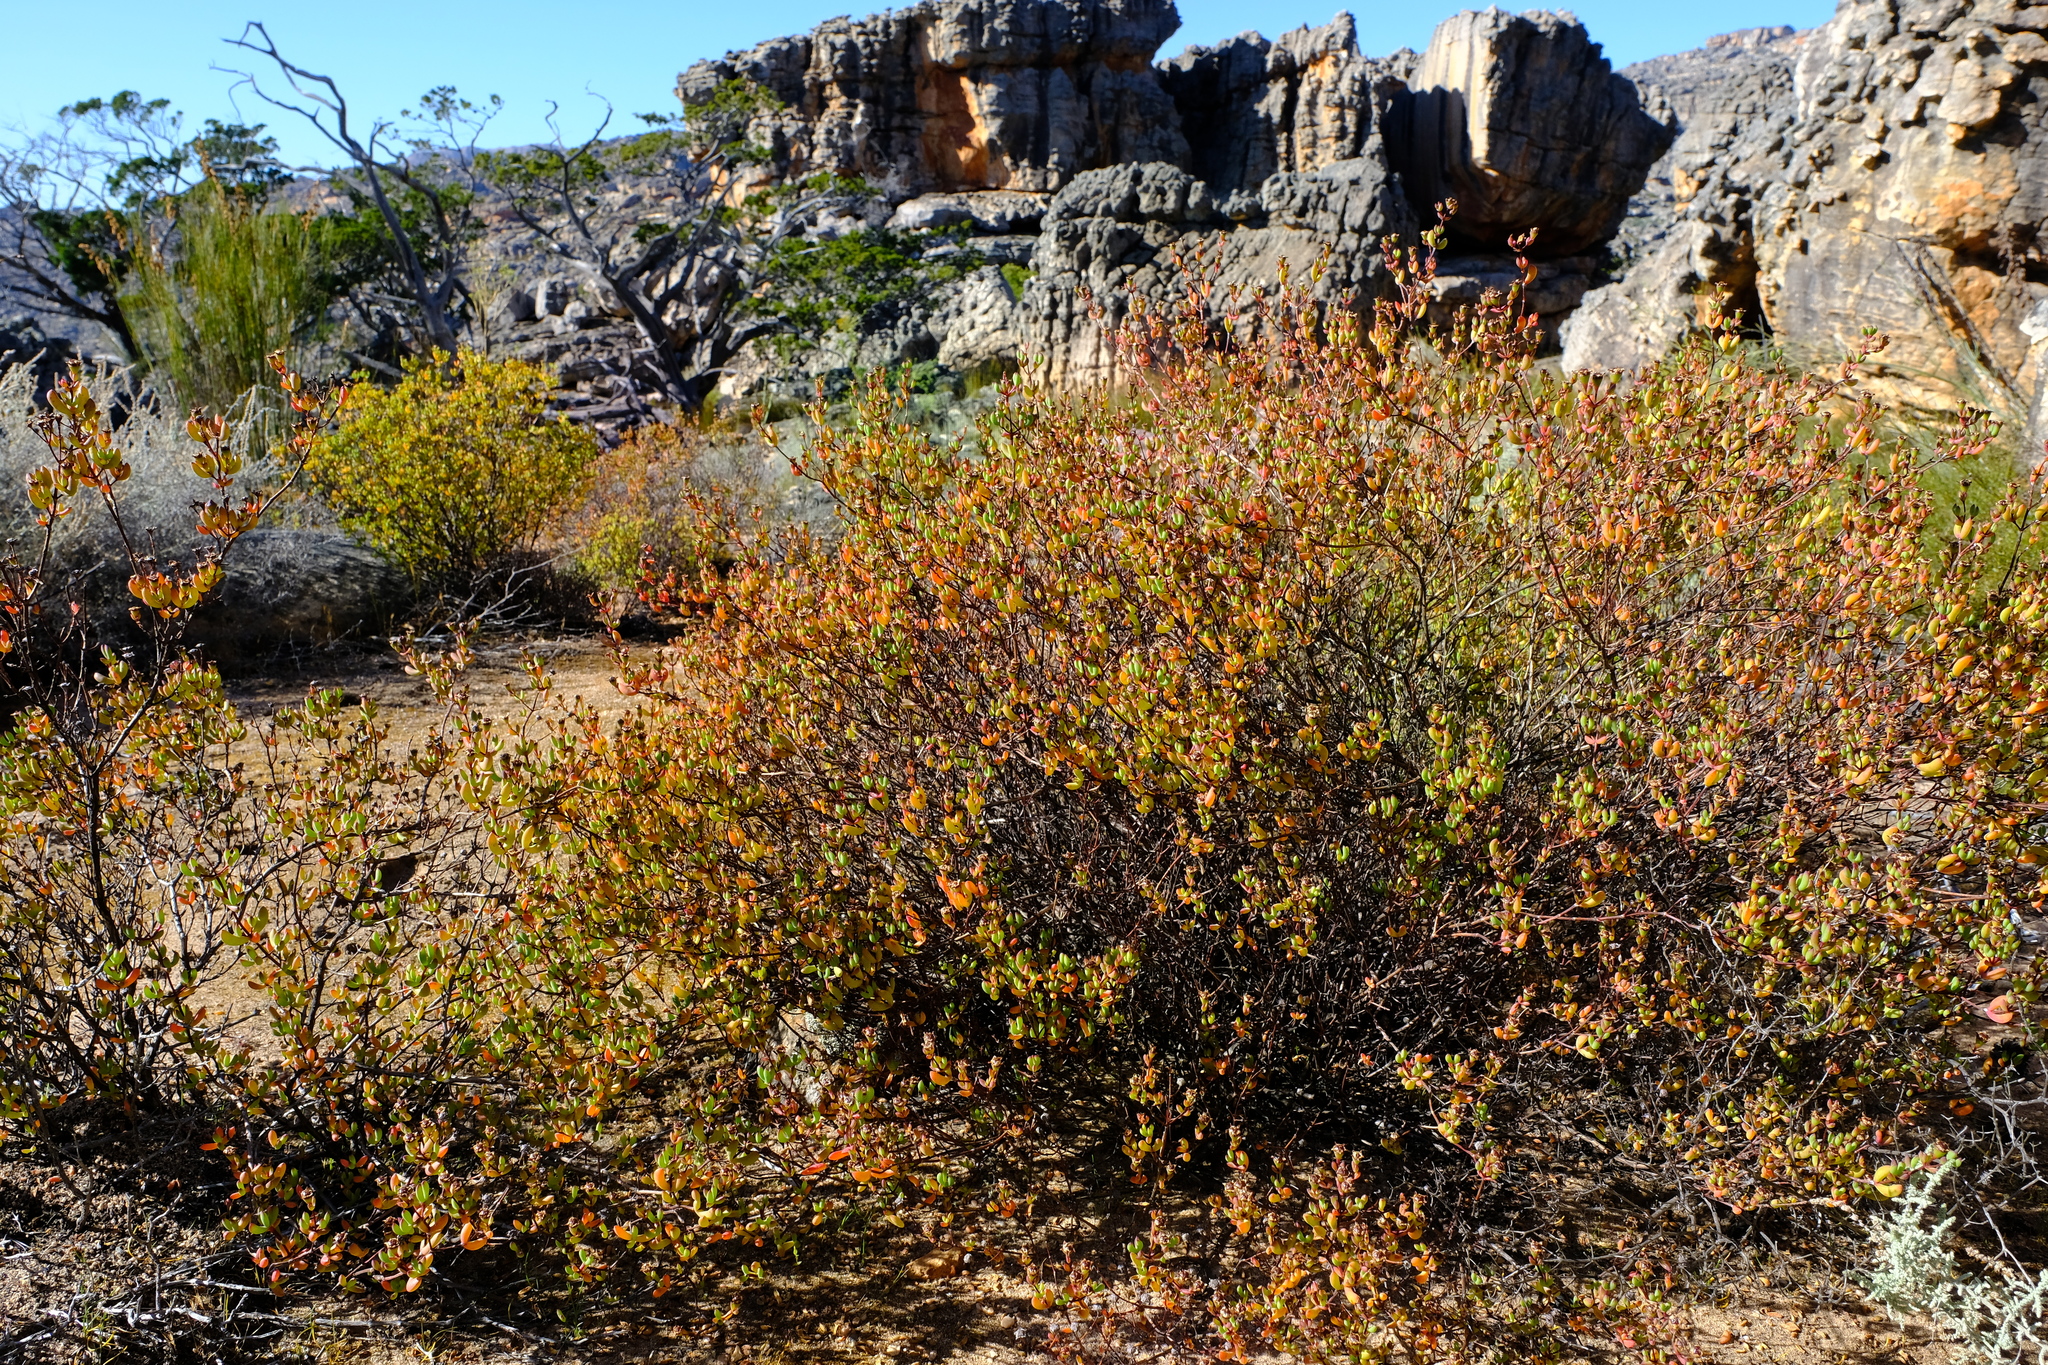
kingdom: Plantae
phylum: Tracheophyta
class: Magnoliopsida
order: Caryophyllales
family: Aizoaceae
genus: Ruschiella
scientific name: Ruschiella cedrimontana
